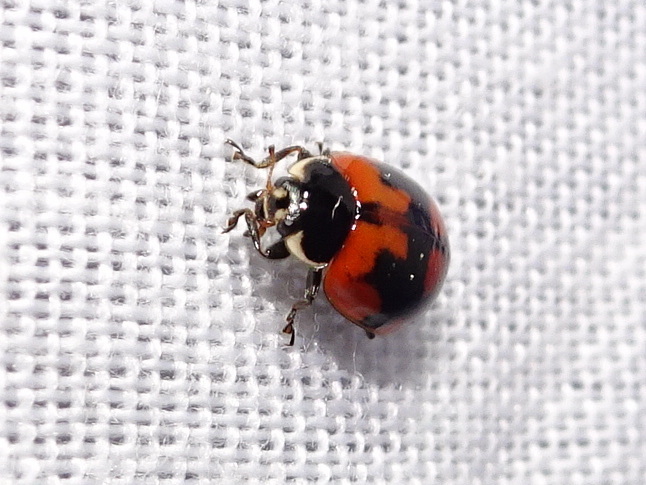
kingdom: Animalia
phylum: Arthropoda
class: Insecta
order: Coleoptera
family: Coccinellidae
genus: Adalia
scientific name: Adalia bipunctata
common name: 2-spot ladybird
